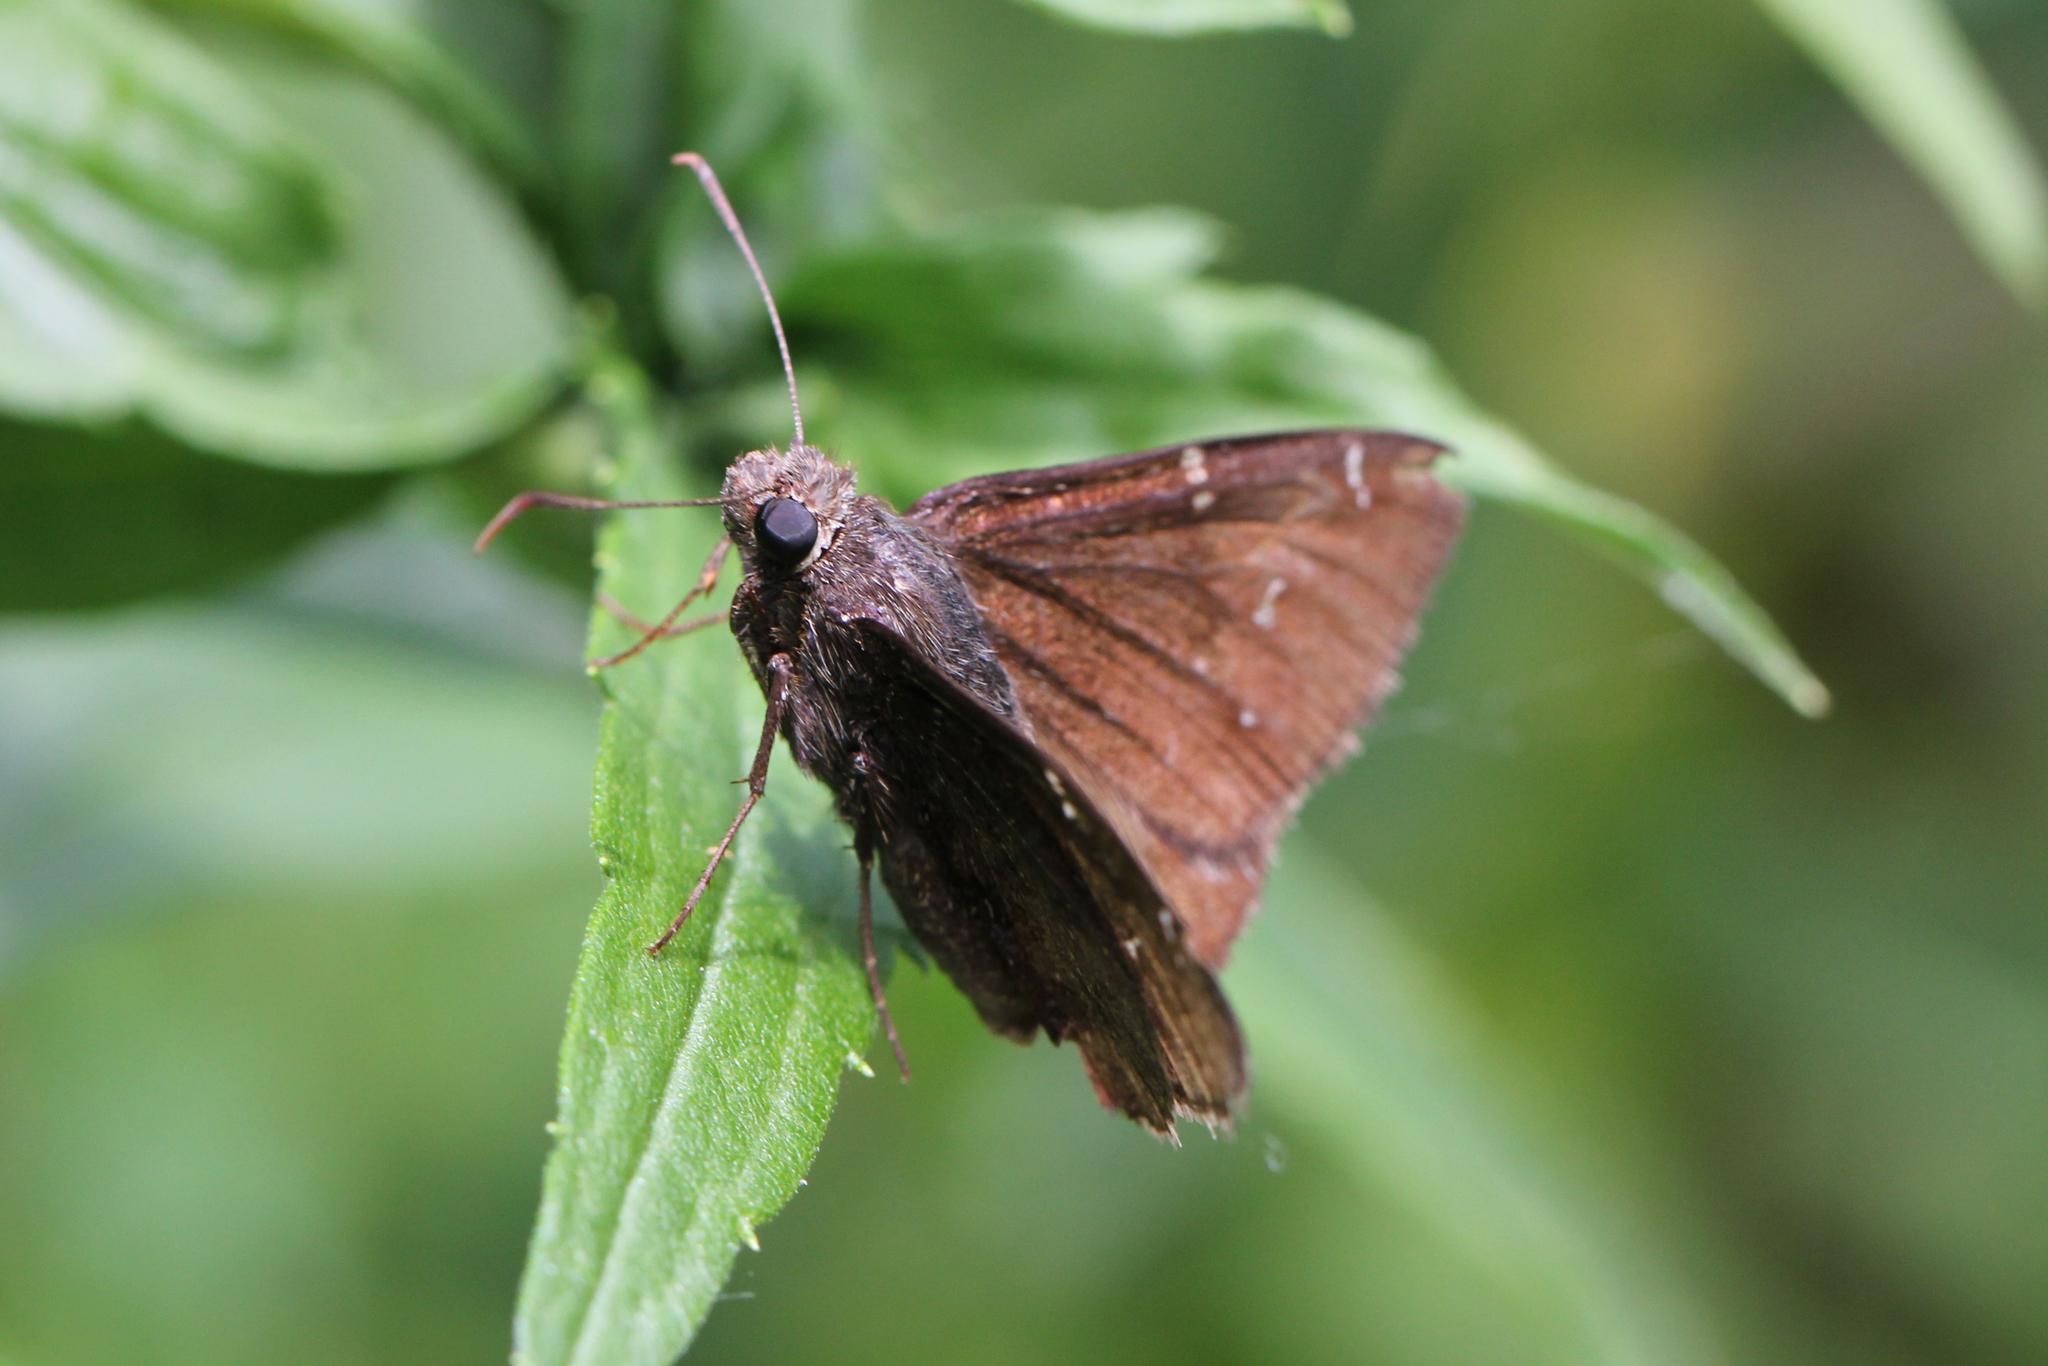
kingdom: Animalia
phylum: Arthropoda
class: Insecta
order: Lepidoptera
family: Hesperiidae
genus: Thorybes
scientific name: Thorybes pylades
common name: Northern cloudywing
